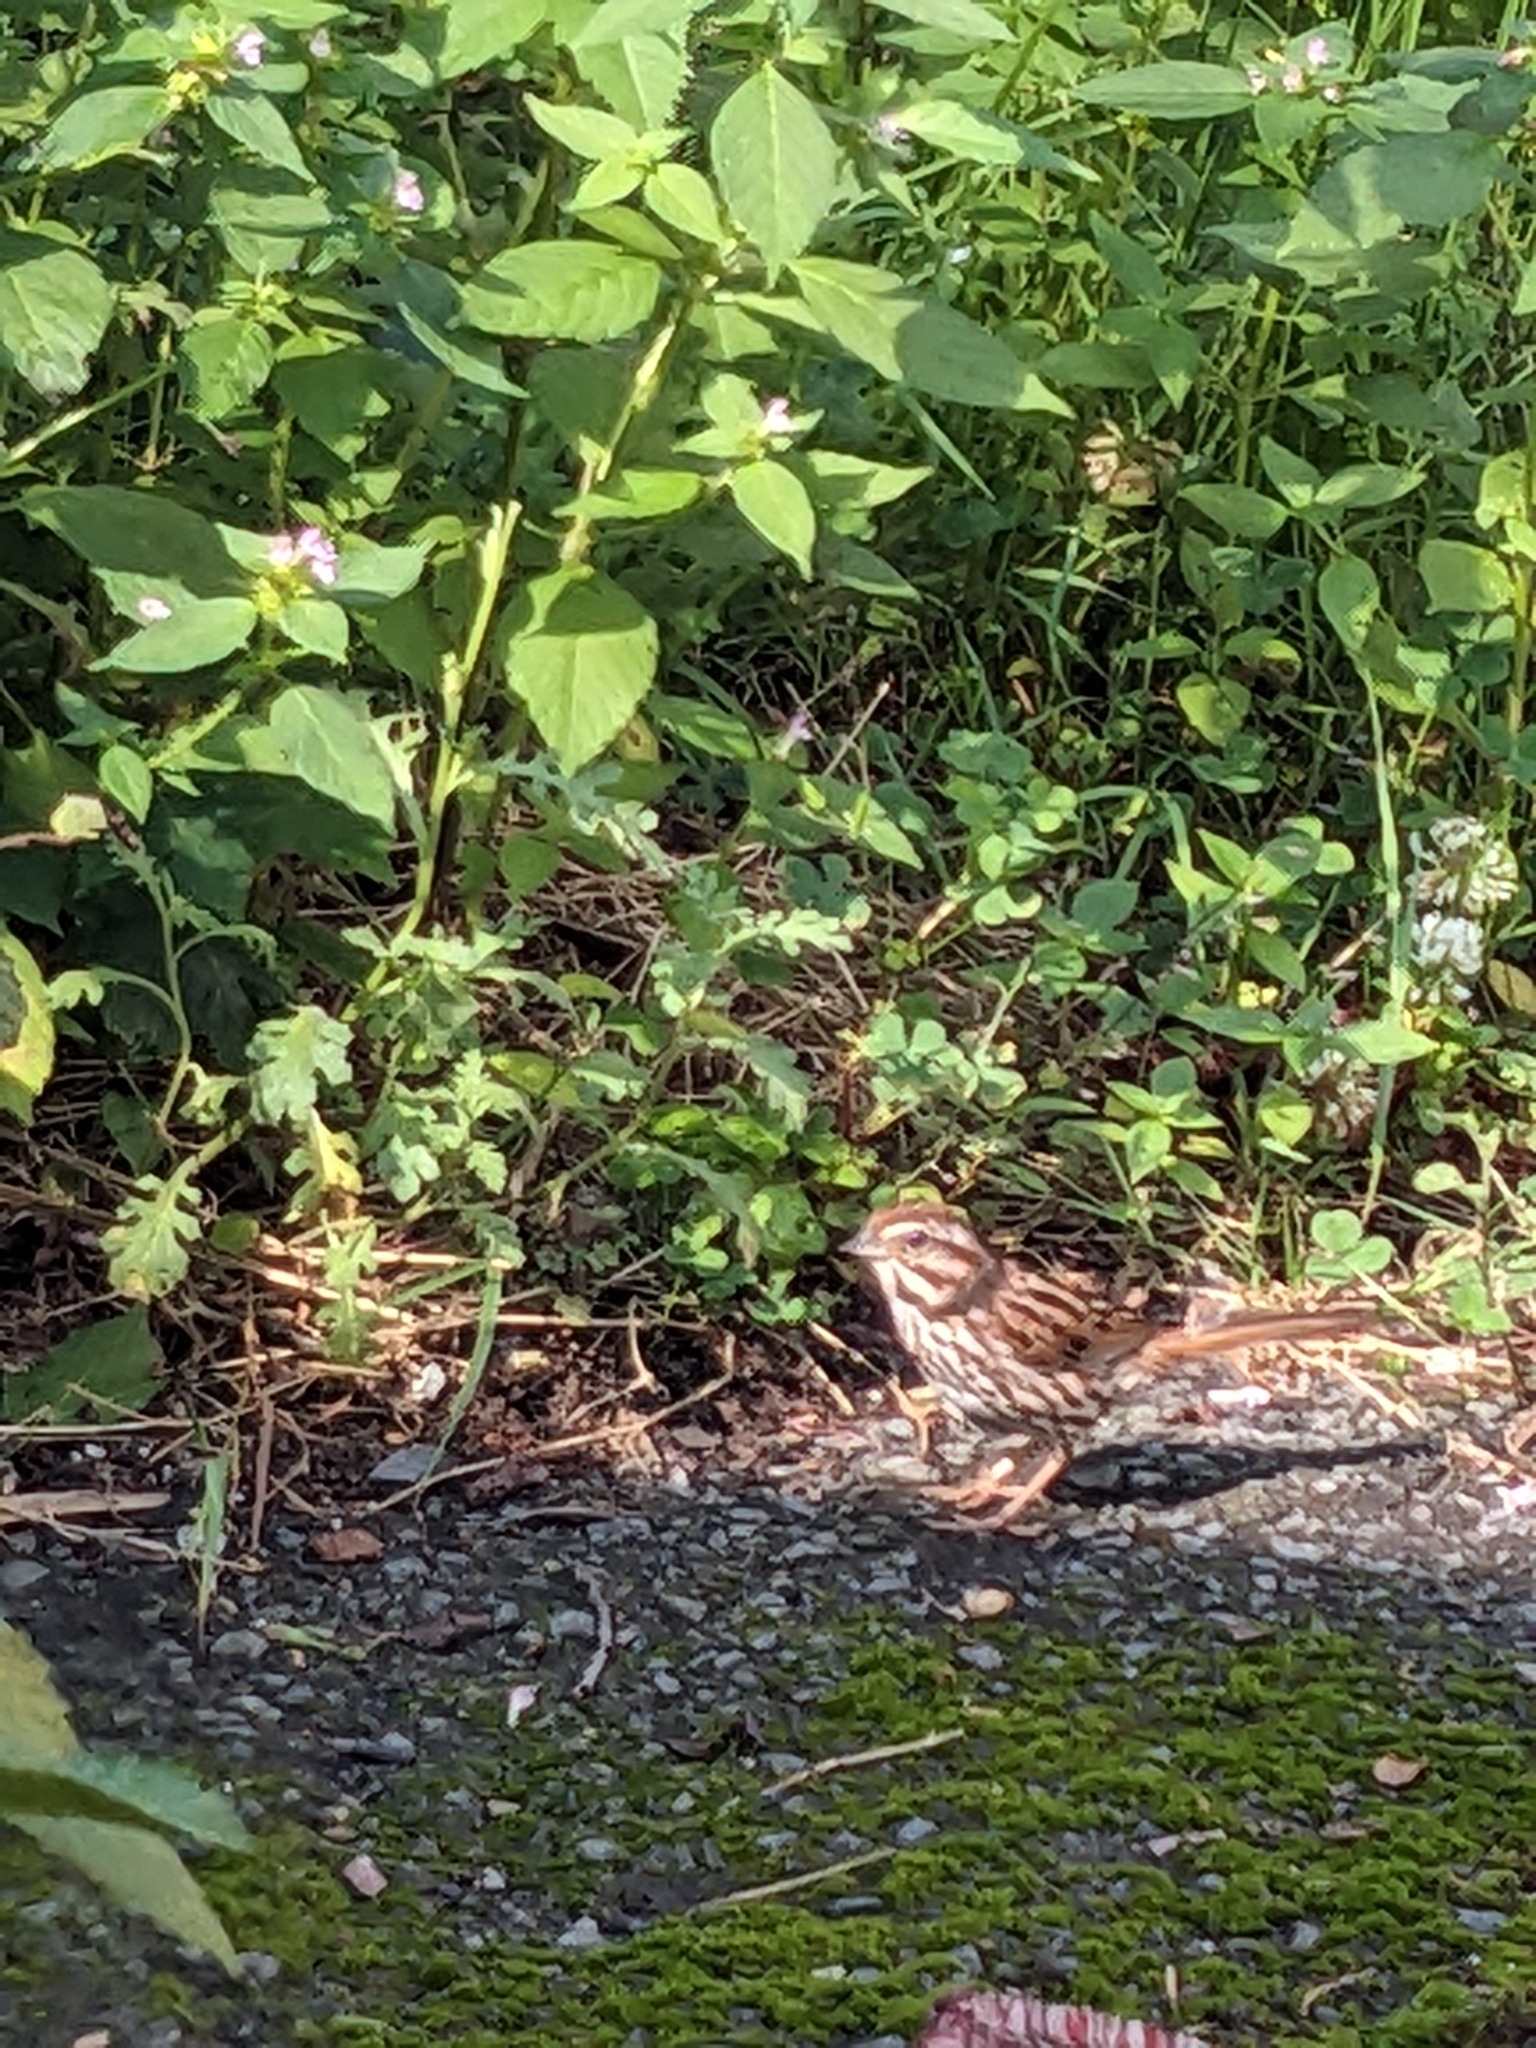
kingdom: Animalia
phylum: Chordata
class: Aves
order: Passeriformes
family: Passerellidae
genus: Melospiza
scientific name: Melospiza melodia
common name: Song sparrow
